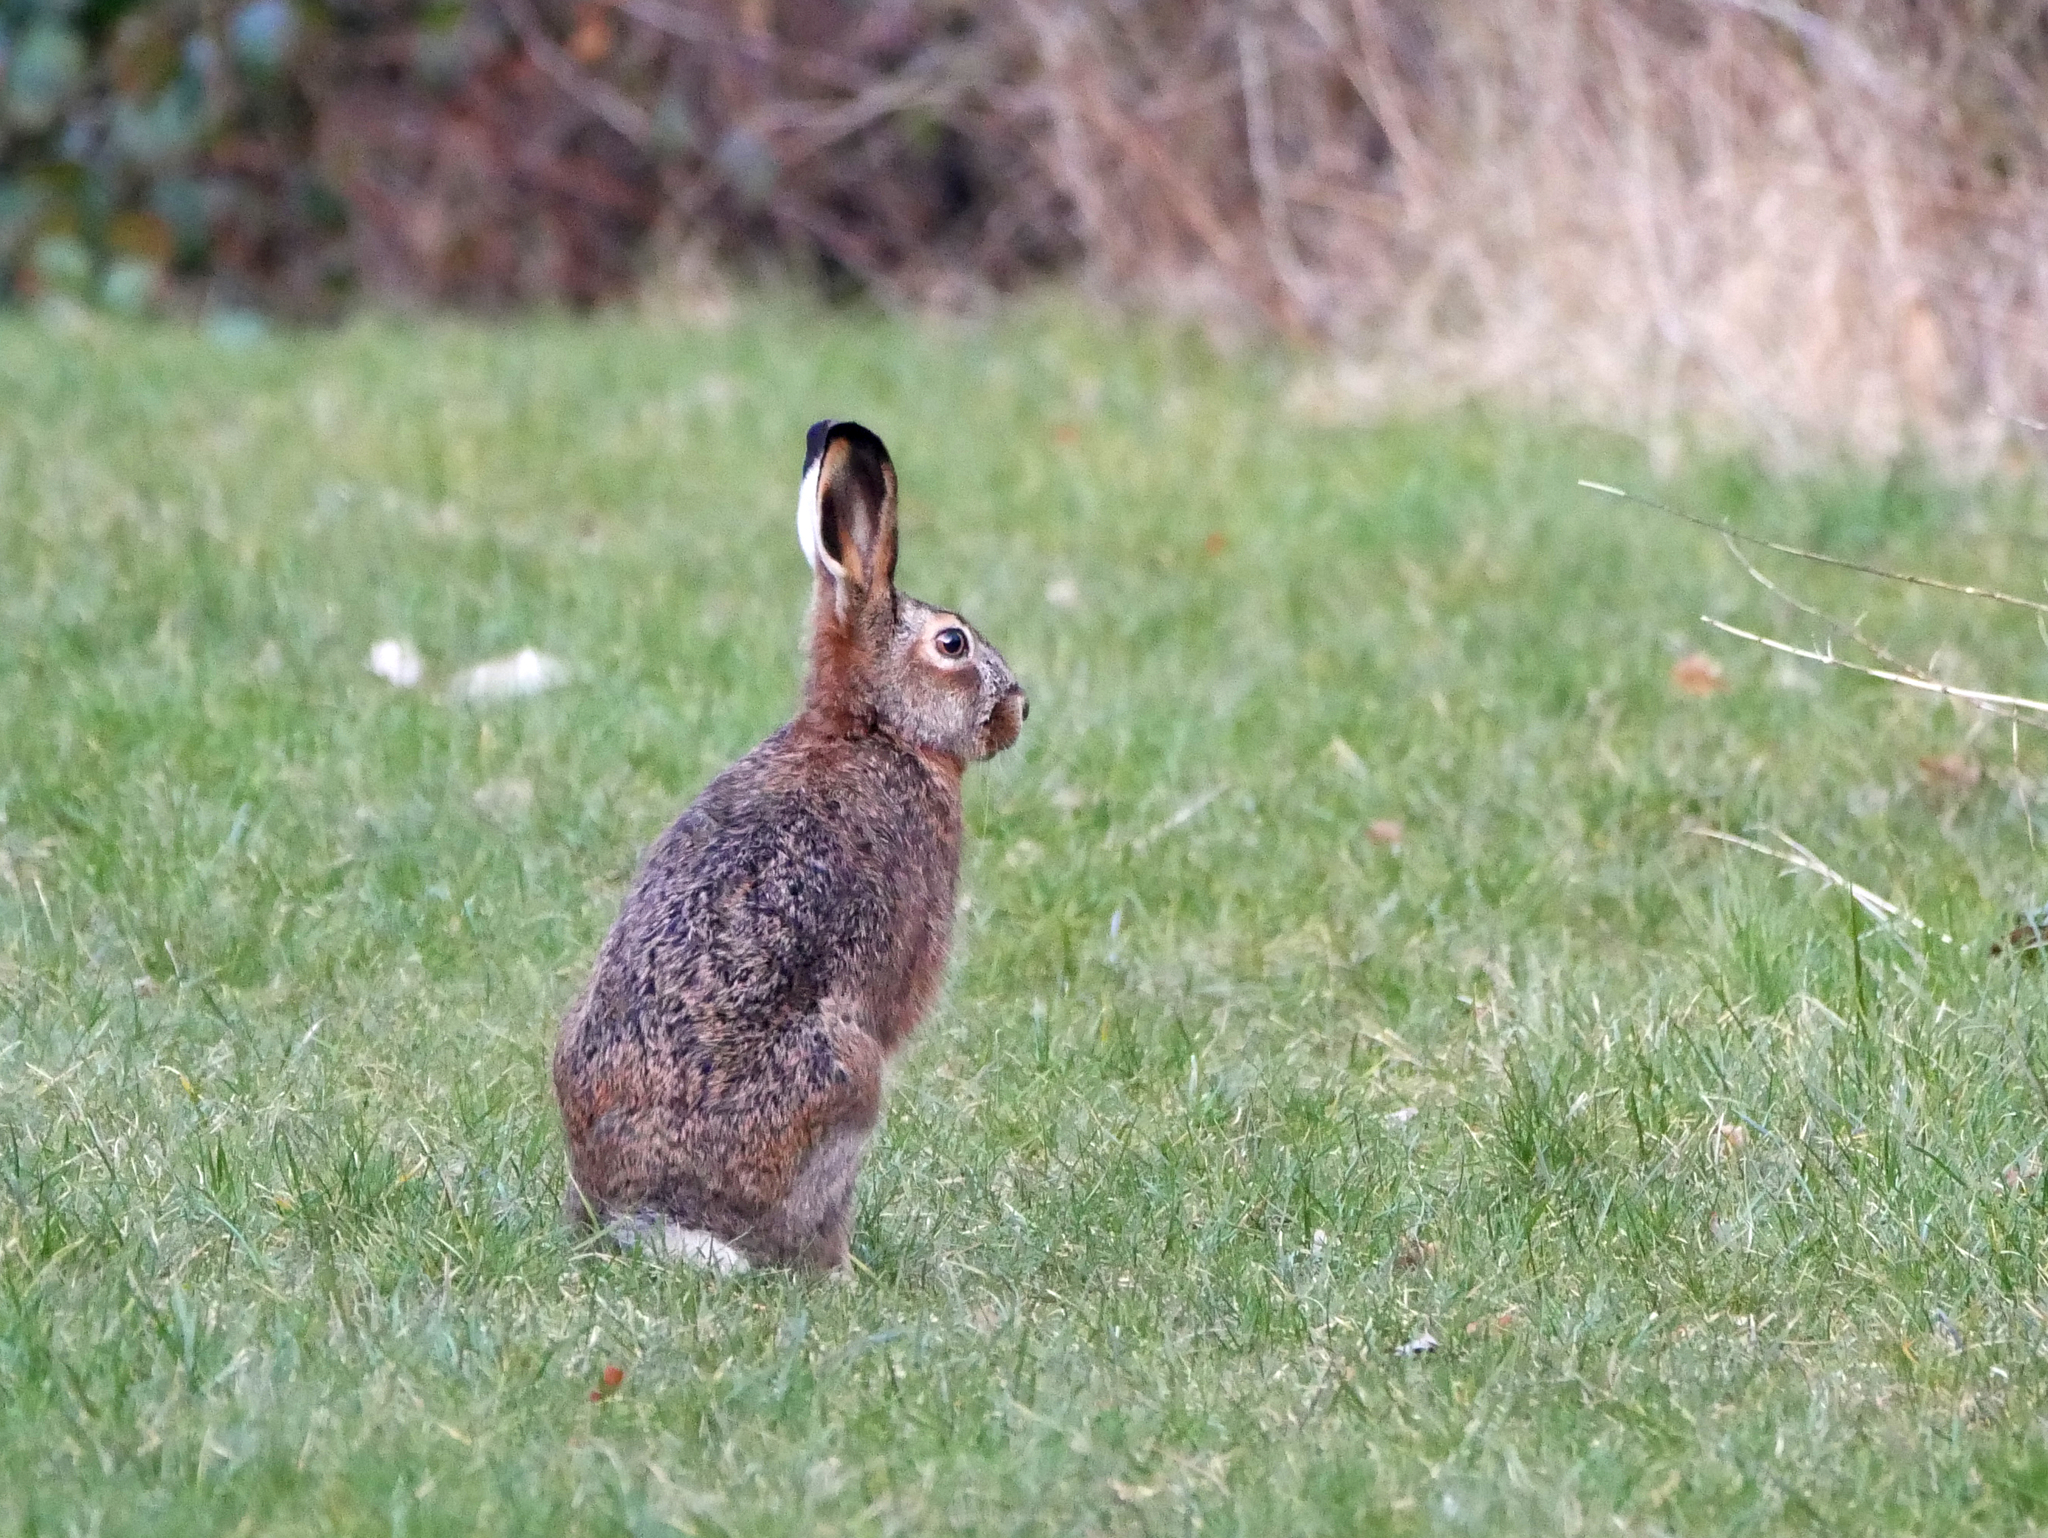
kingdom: Animalia
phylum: Chordata
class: Mammalia
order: Lagomorpha
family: Leporidae
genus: Lepus
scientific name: Lepus europaeus
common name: European hare
